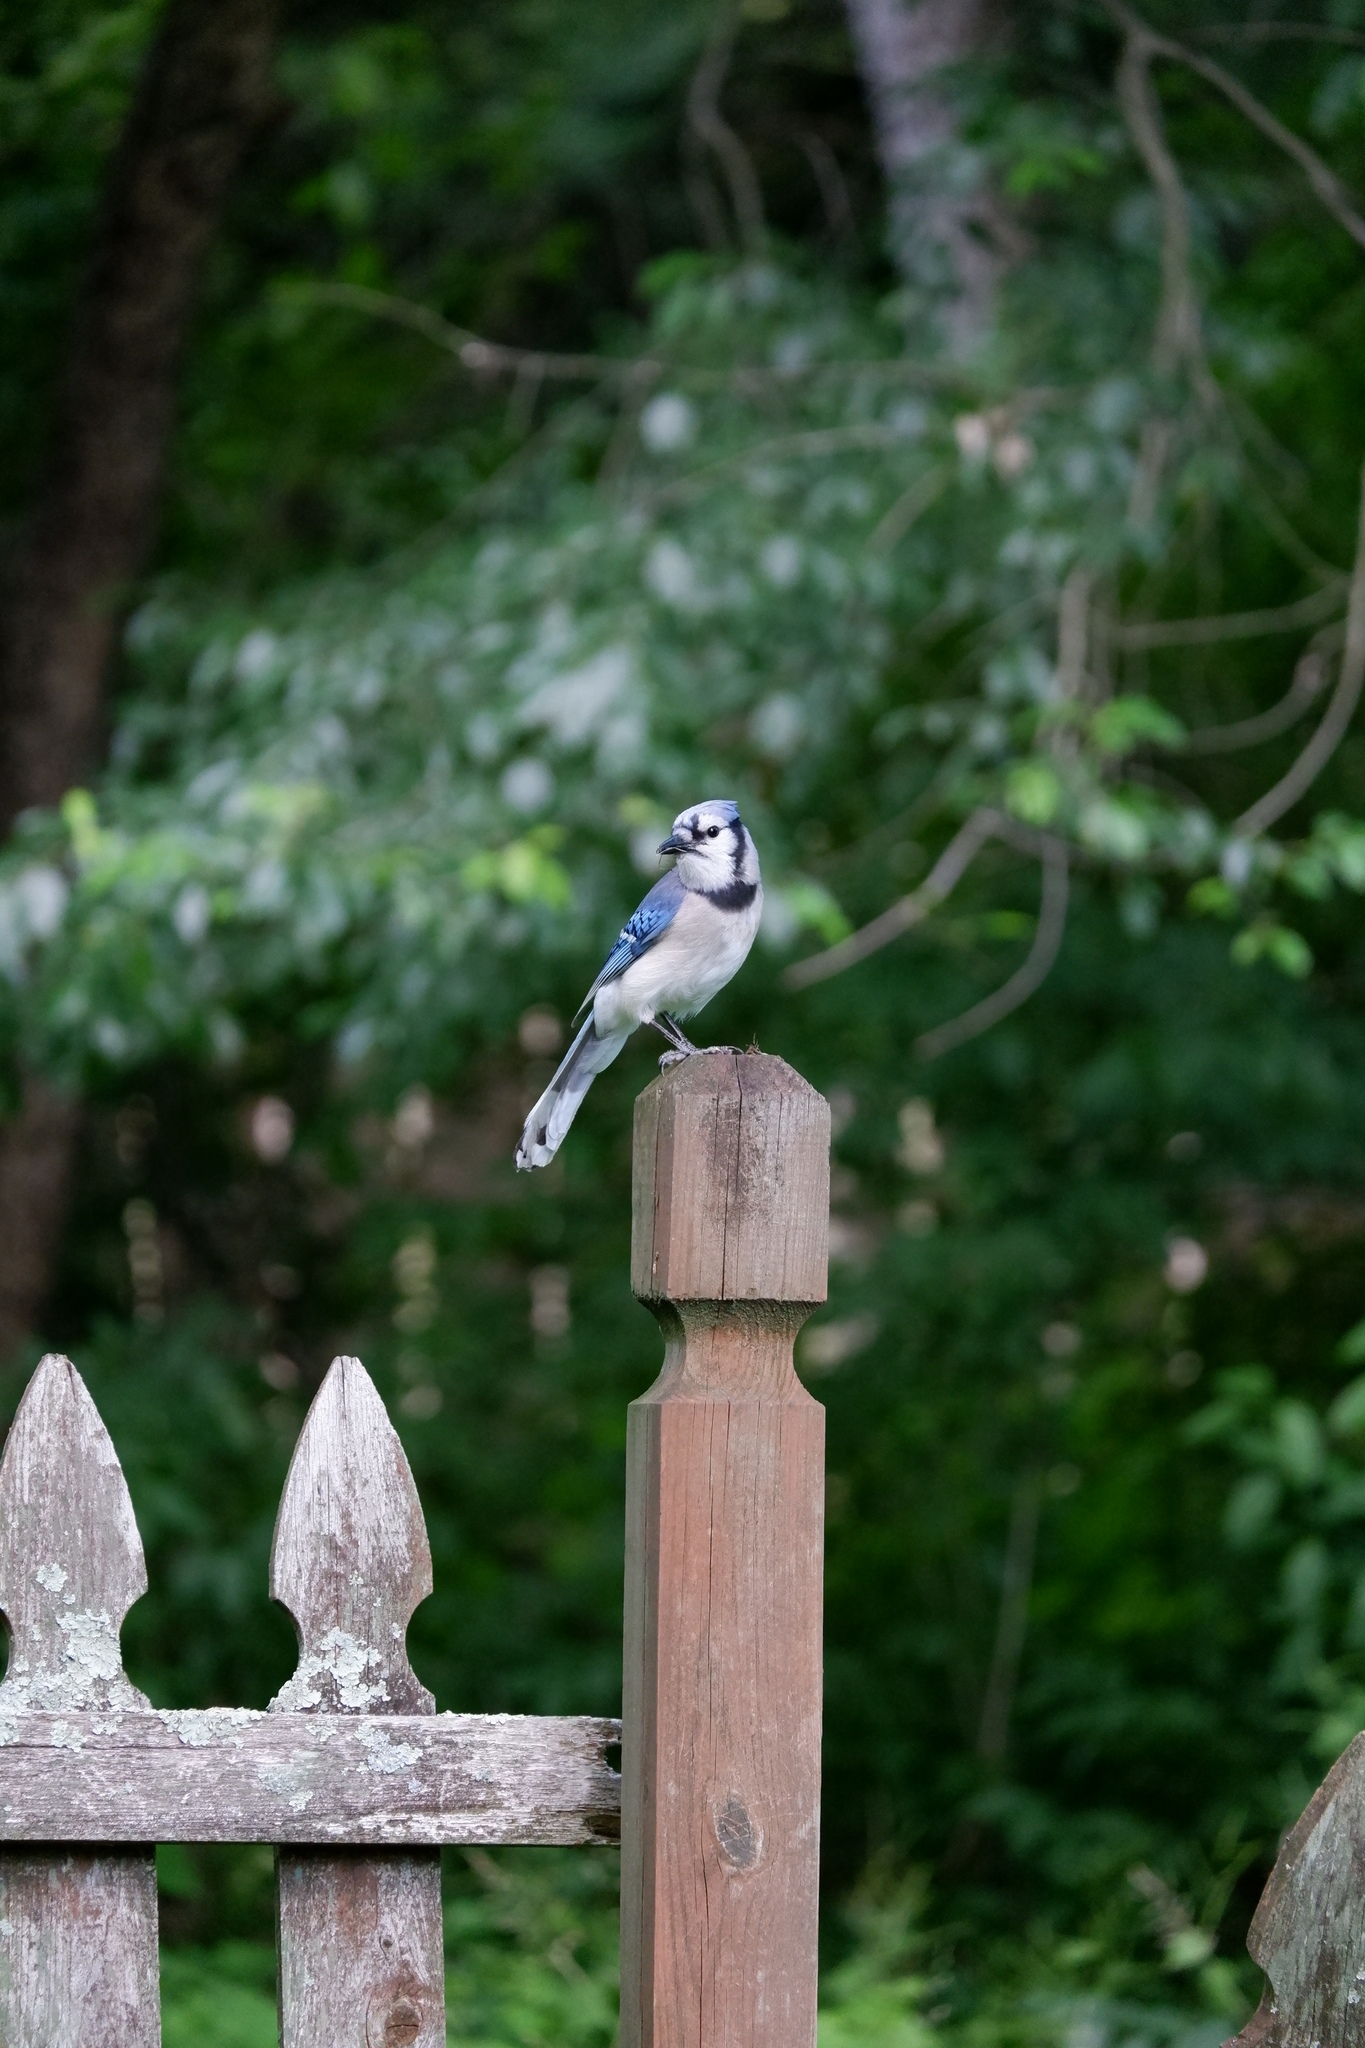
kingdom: Animalia
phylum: Chordata
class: Aves
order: Passeriformes
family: Corvidae
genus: Cyanocitta
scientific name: Cyanocitta cristata
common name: Blue jay
